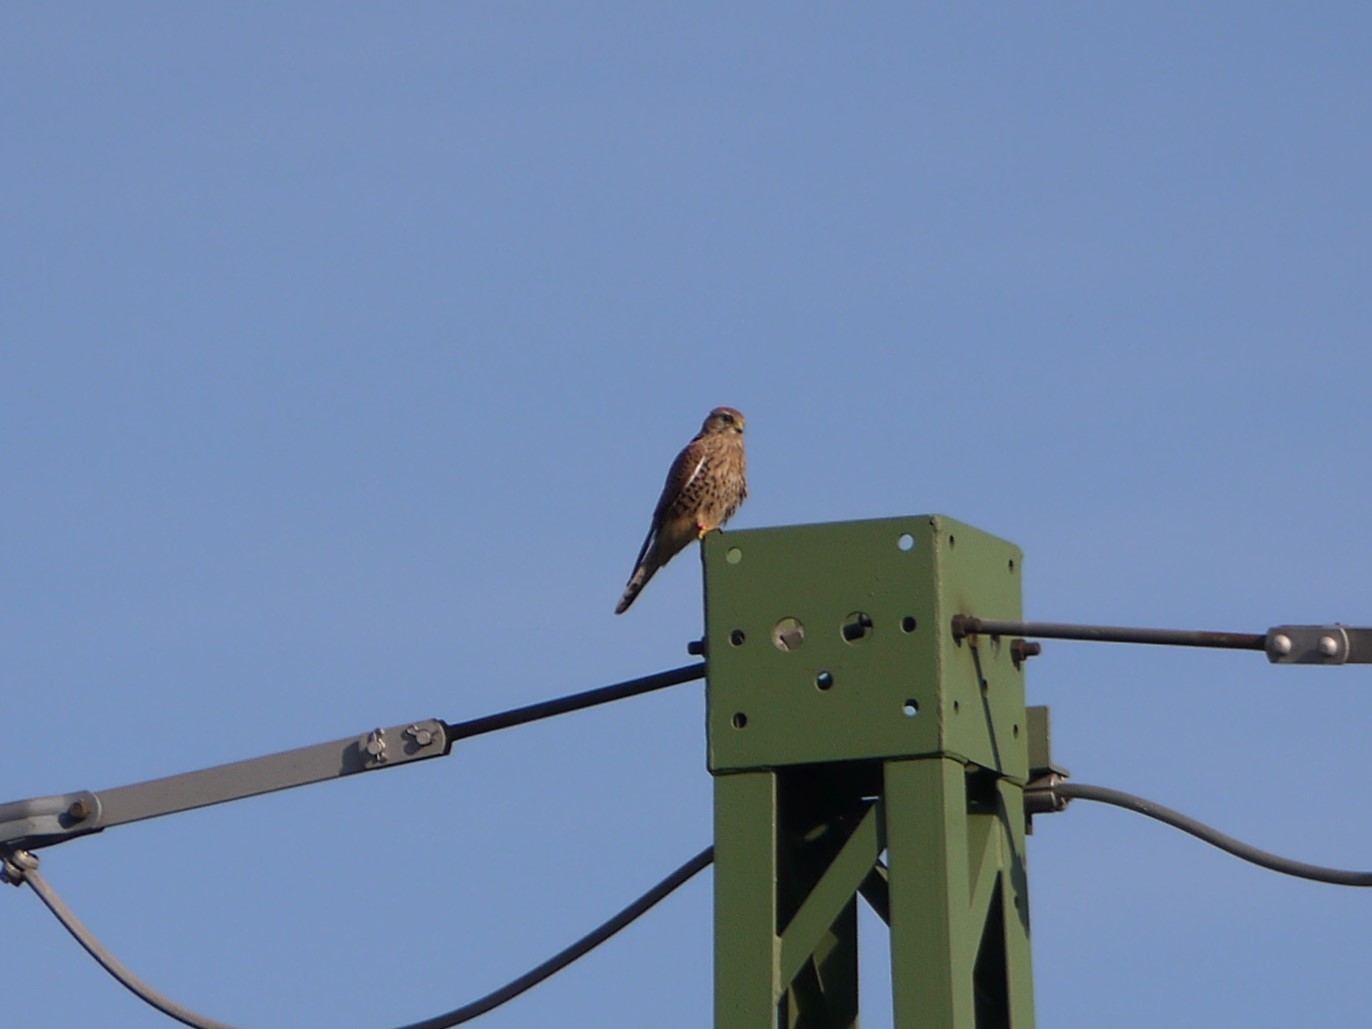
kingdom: Animalia
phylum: Chordata
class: Aves
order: Falconiformes
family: Falconidae
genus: Falco
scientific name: Falco tinnunculus
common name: Common kestrel
